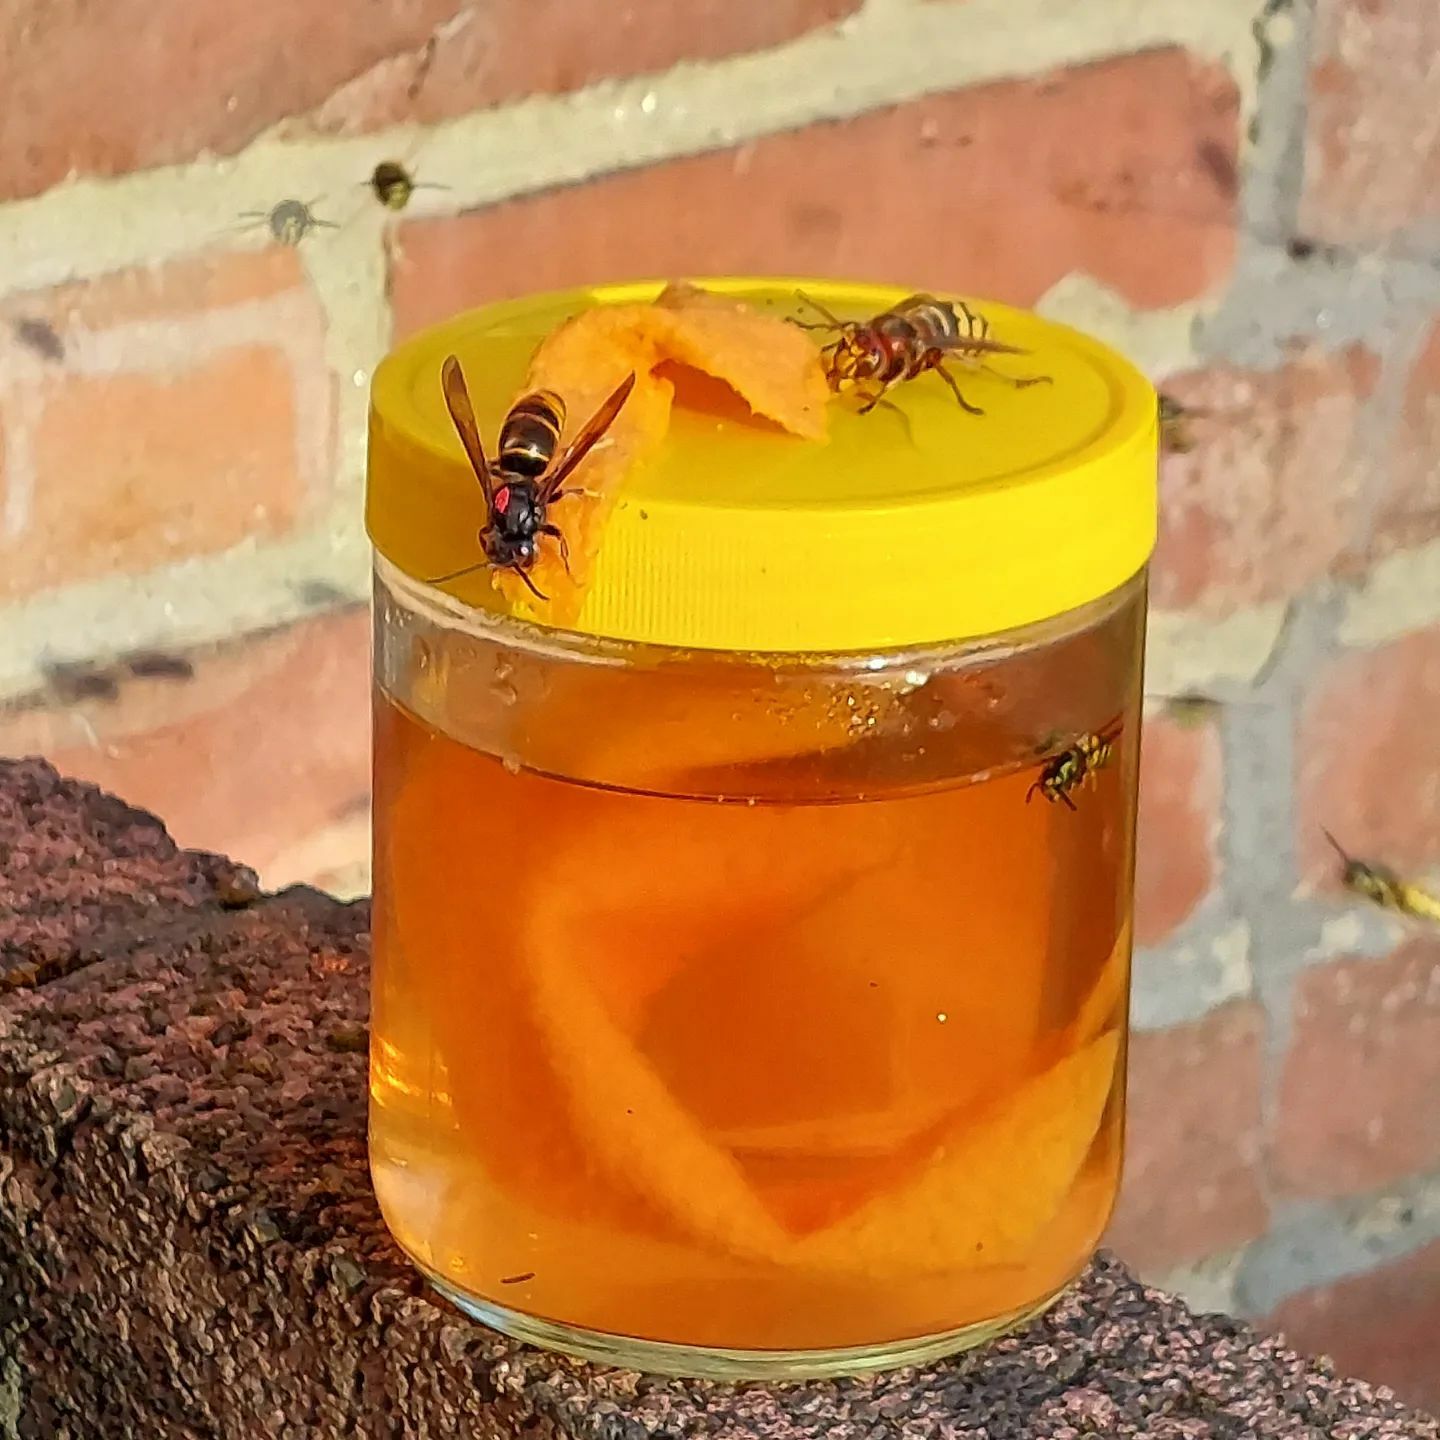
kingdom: Animalia
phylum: Arthropoda
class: Insecta
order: Hymenoptera
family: Vespidae
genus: Vespa
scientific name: Vespa velutina
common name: Asian hornet
